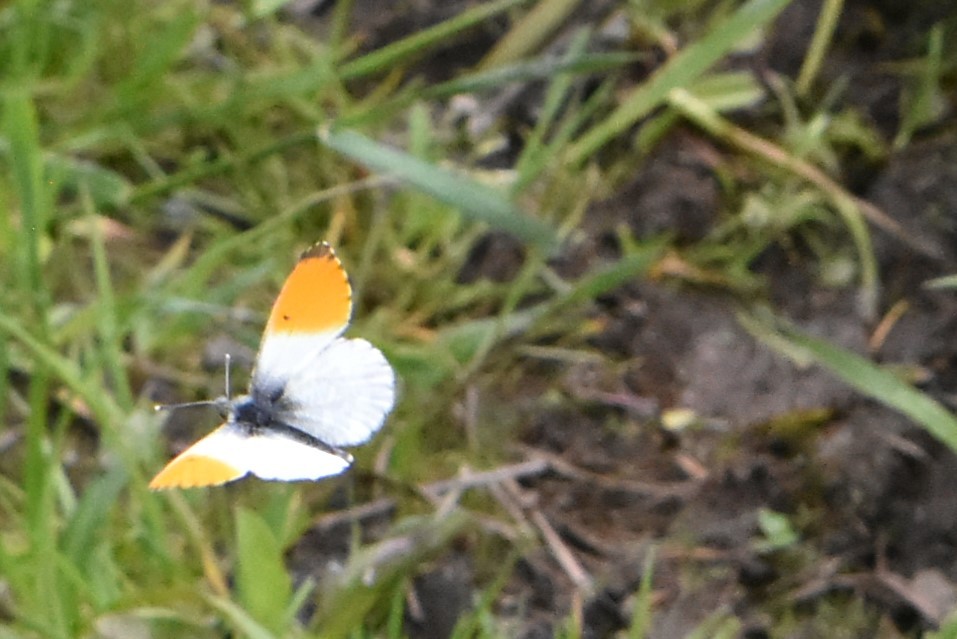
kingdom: Animalia
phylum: Arthropoda
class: Insecta
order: Lepidoptera
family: Pieridae
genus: Anthocharis
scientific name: Anthocharis cardamines
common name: Orange-tip
